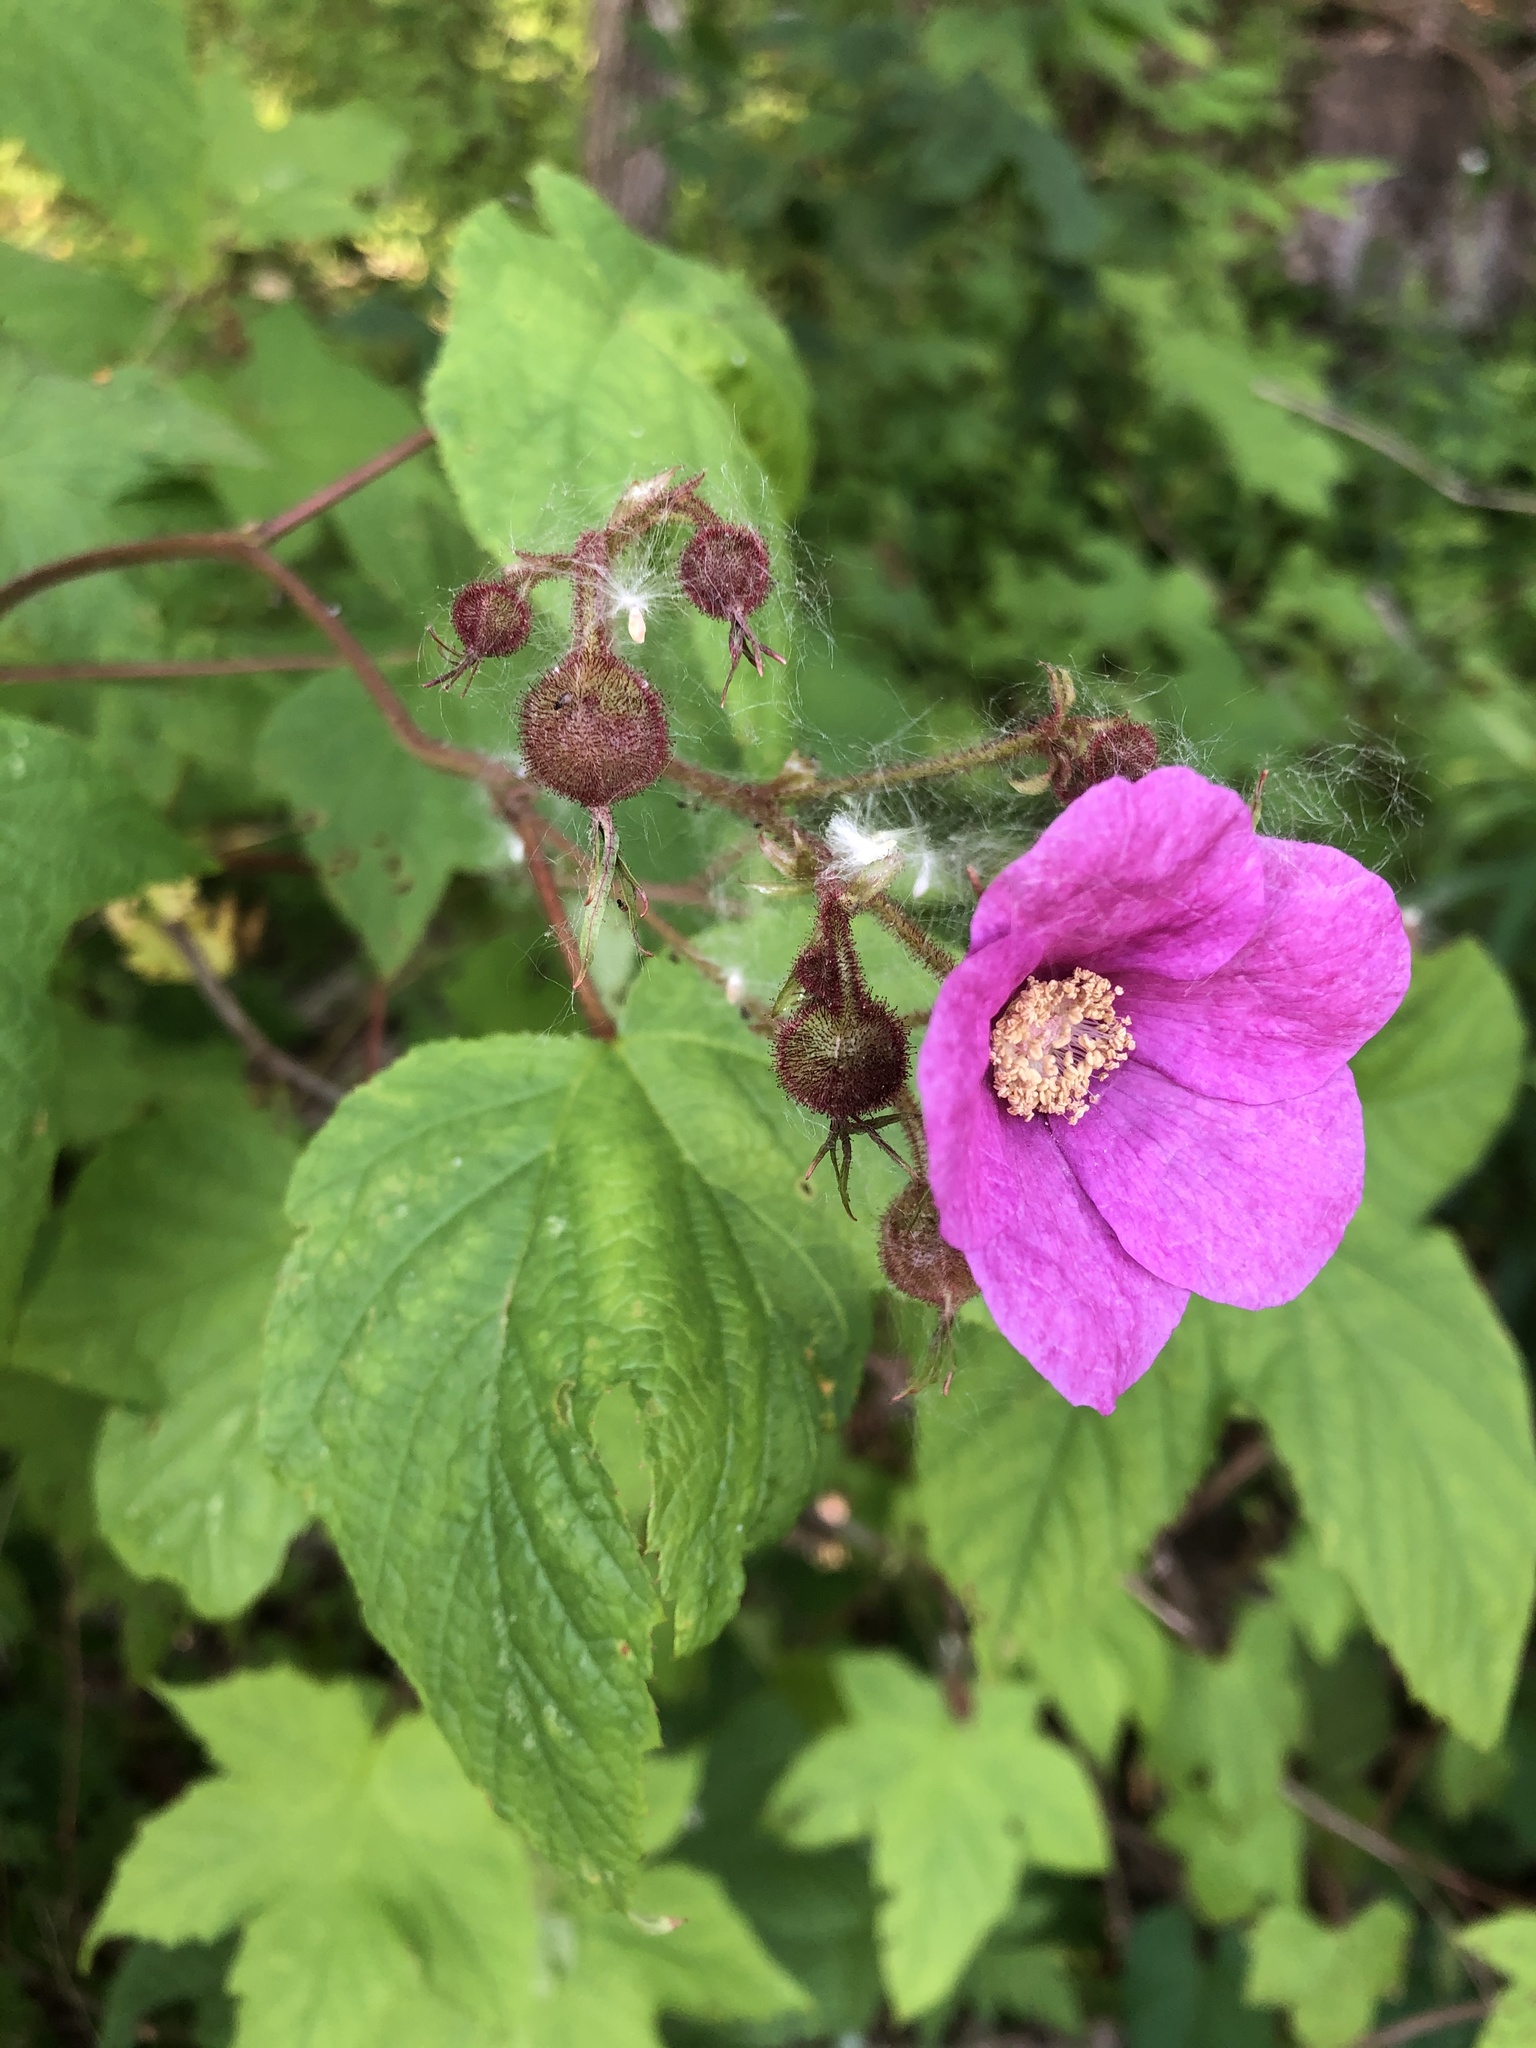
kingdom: Plantae
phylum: Tracheophyta
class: Magnoliopsida
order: Rosales
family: Rosaceae
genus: Rubus
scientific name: Rubus odoratus
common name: Purple-flowered raspberry
